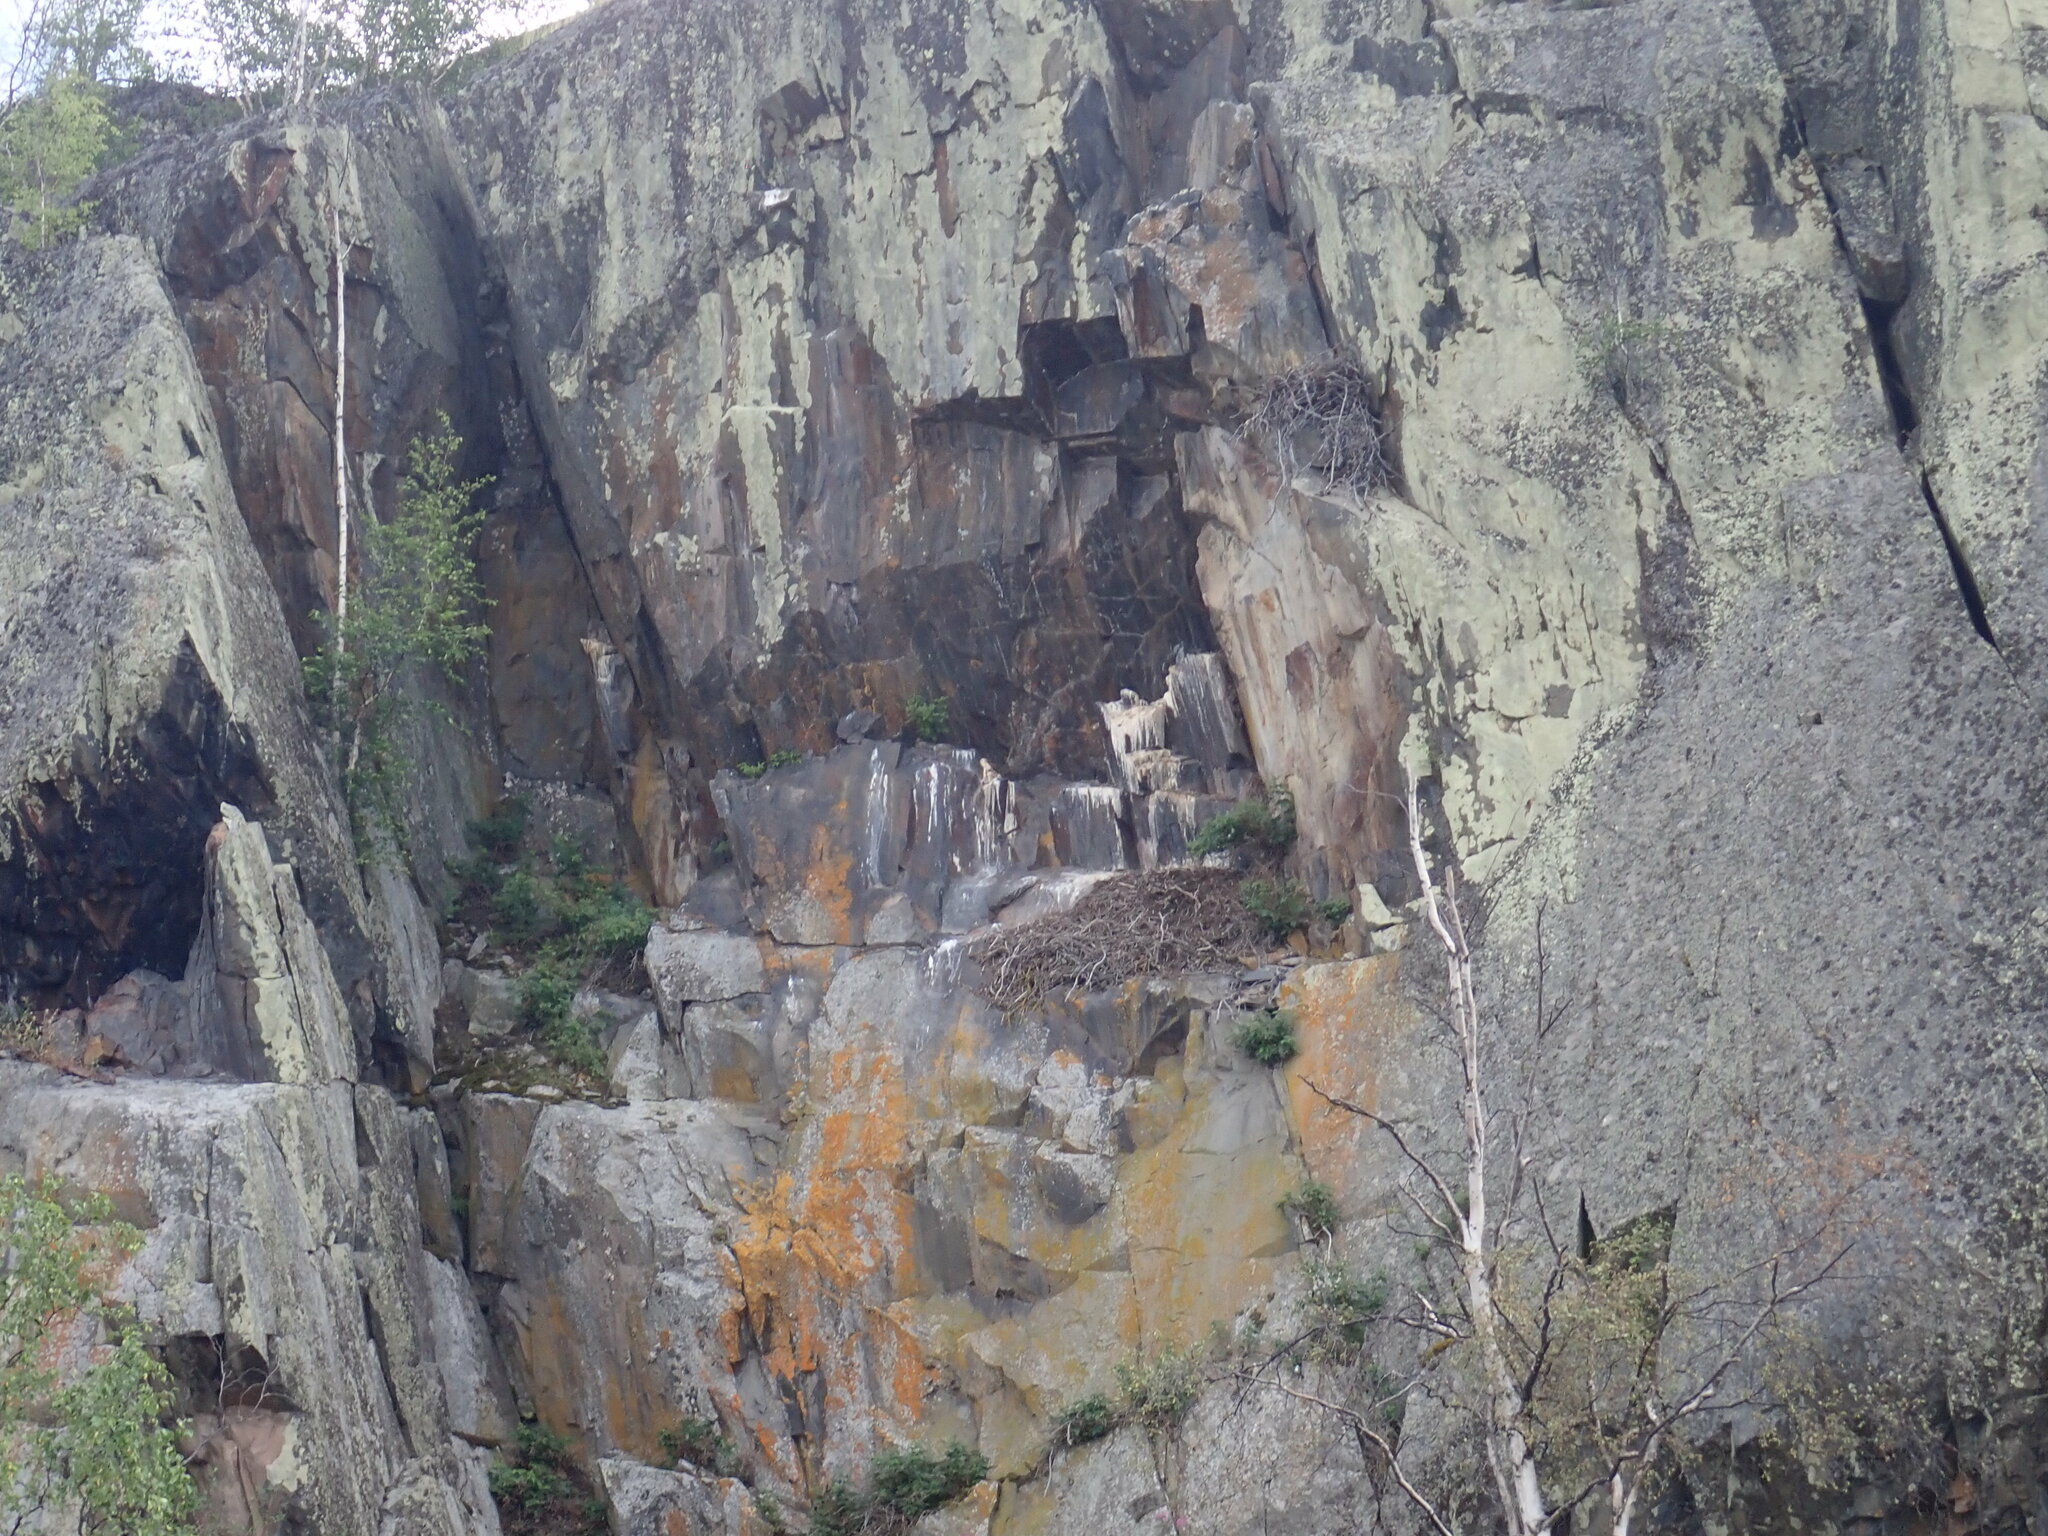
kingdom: Animalia
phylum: Chordata
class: Aves
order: Falconiformes
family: Falconidae
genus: Falco
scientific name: Falco peregrinus
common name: Peregrine falcon
